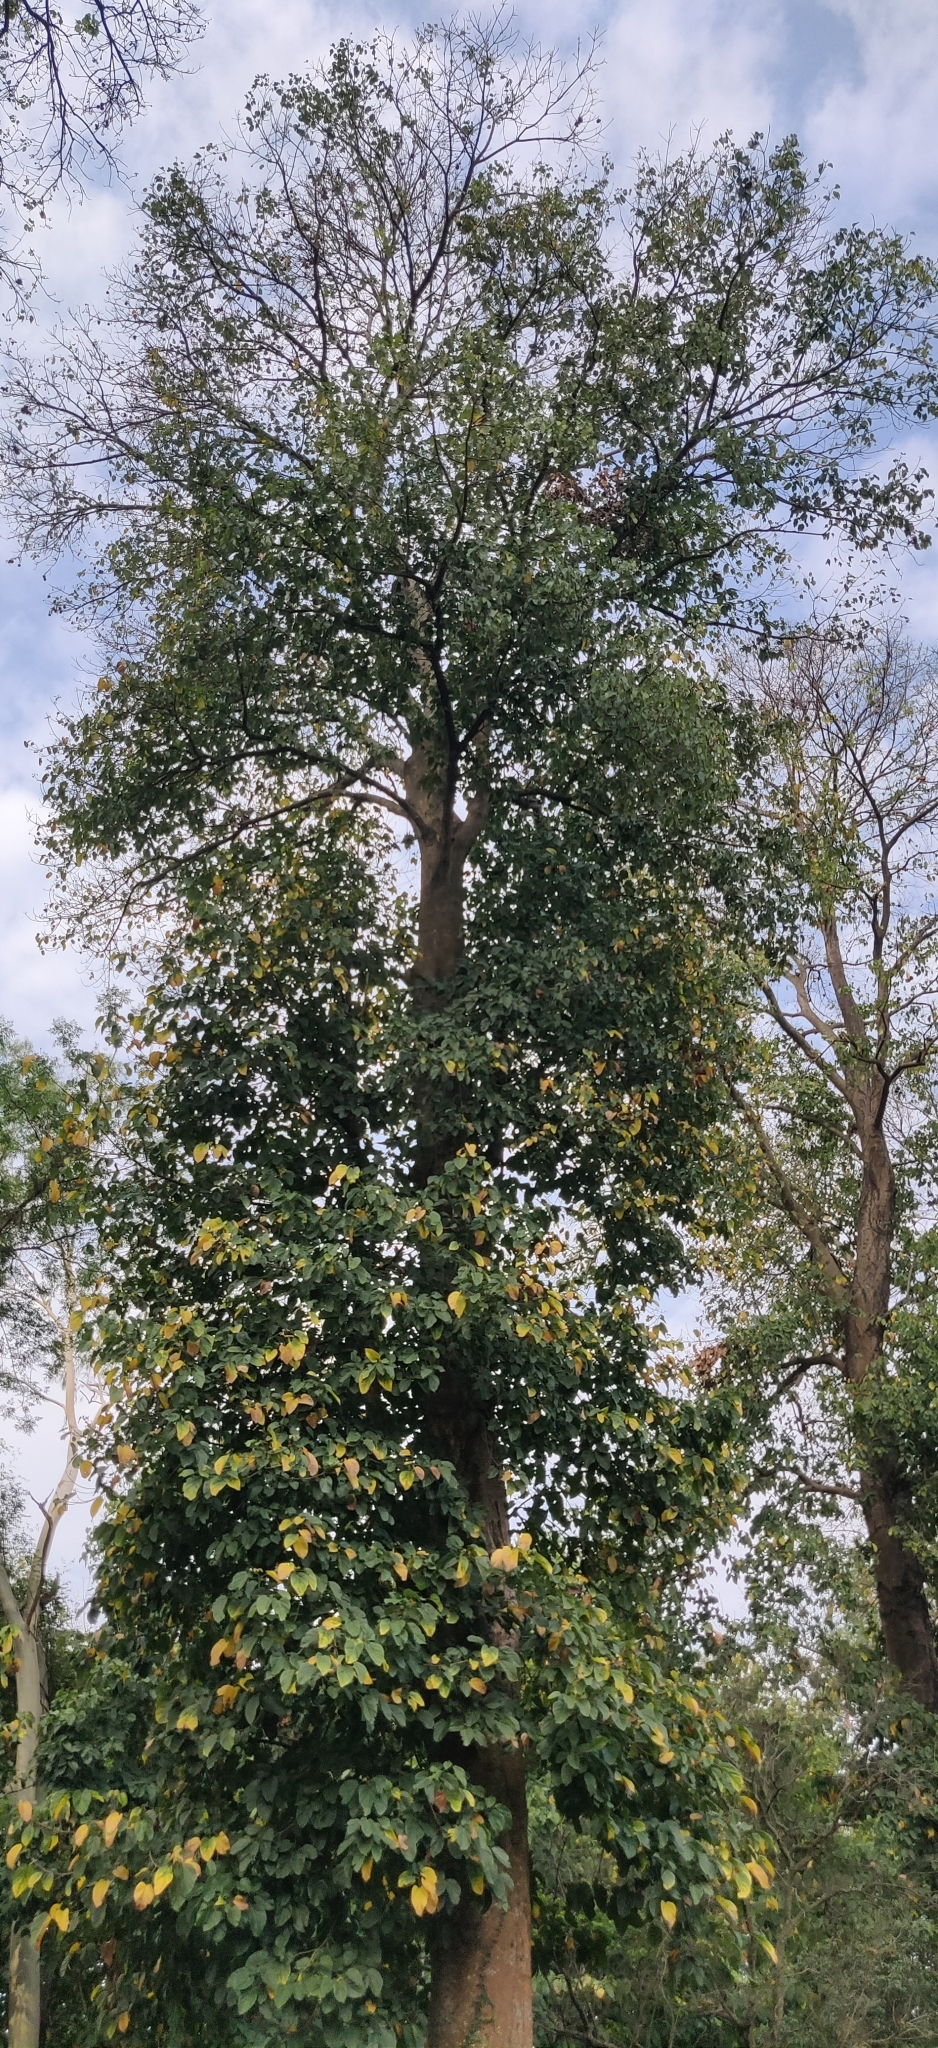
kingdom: Plantae
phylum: Tracheophyta
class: Magnoliopsida
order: Malvales
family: Malvaceae
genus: Pterygota
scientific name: Pterygota alata
